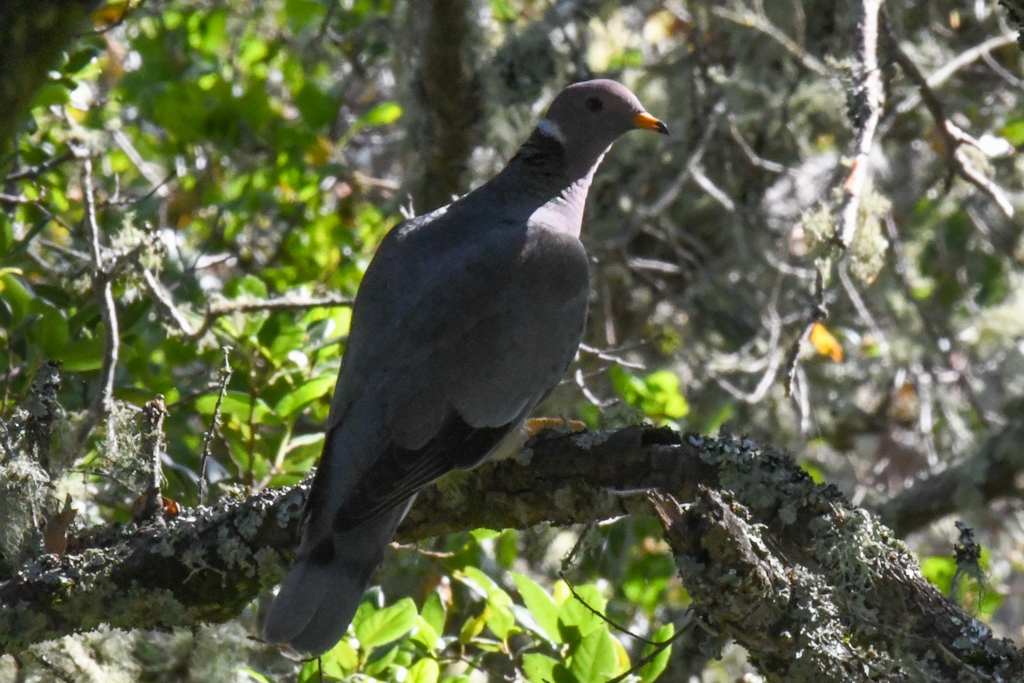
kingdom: Animalia
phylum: Chordata
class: Aves
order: Columbiformes
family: Columbidae
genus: Patagioenas
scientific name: Patagioenas fasciata
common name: Band-tailed pigeon
